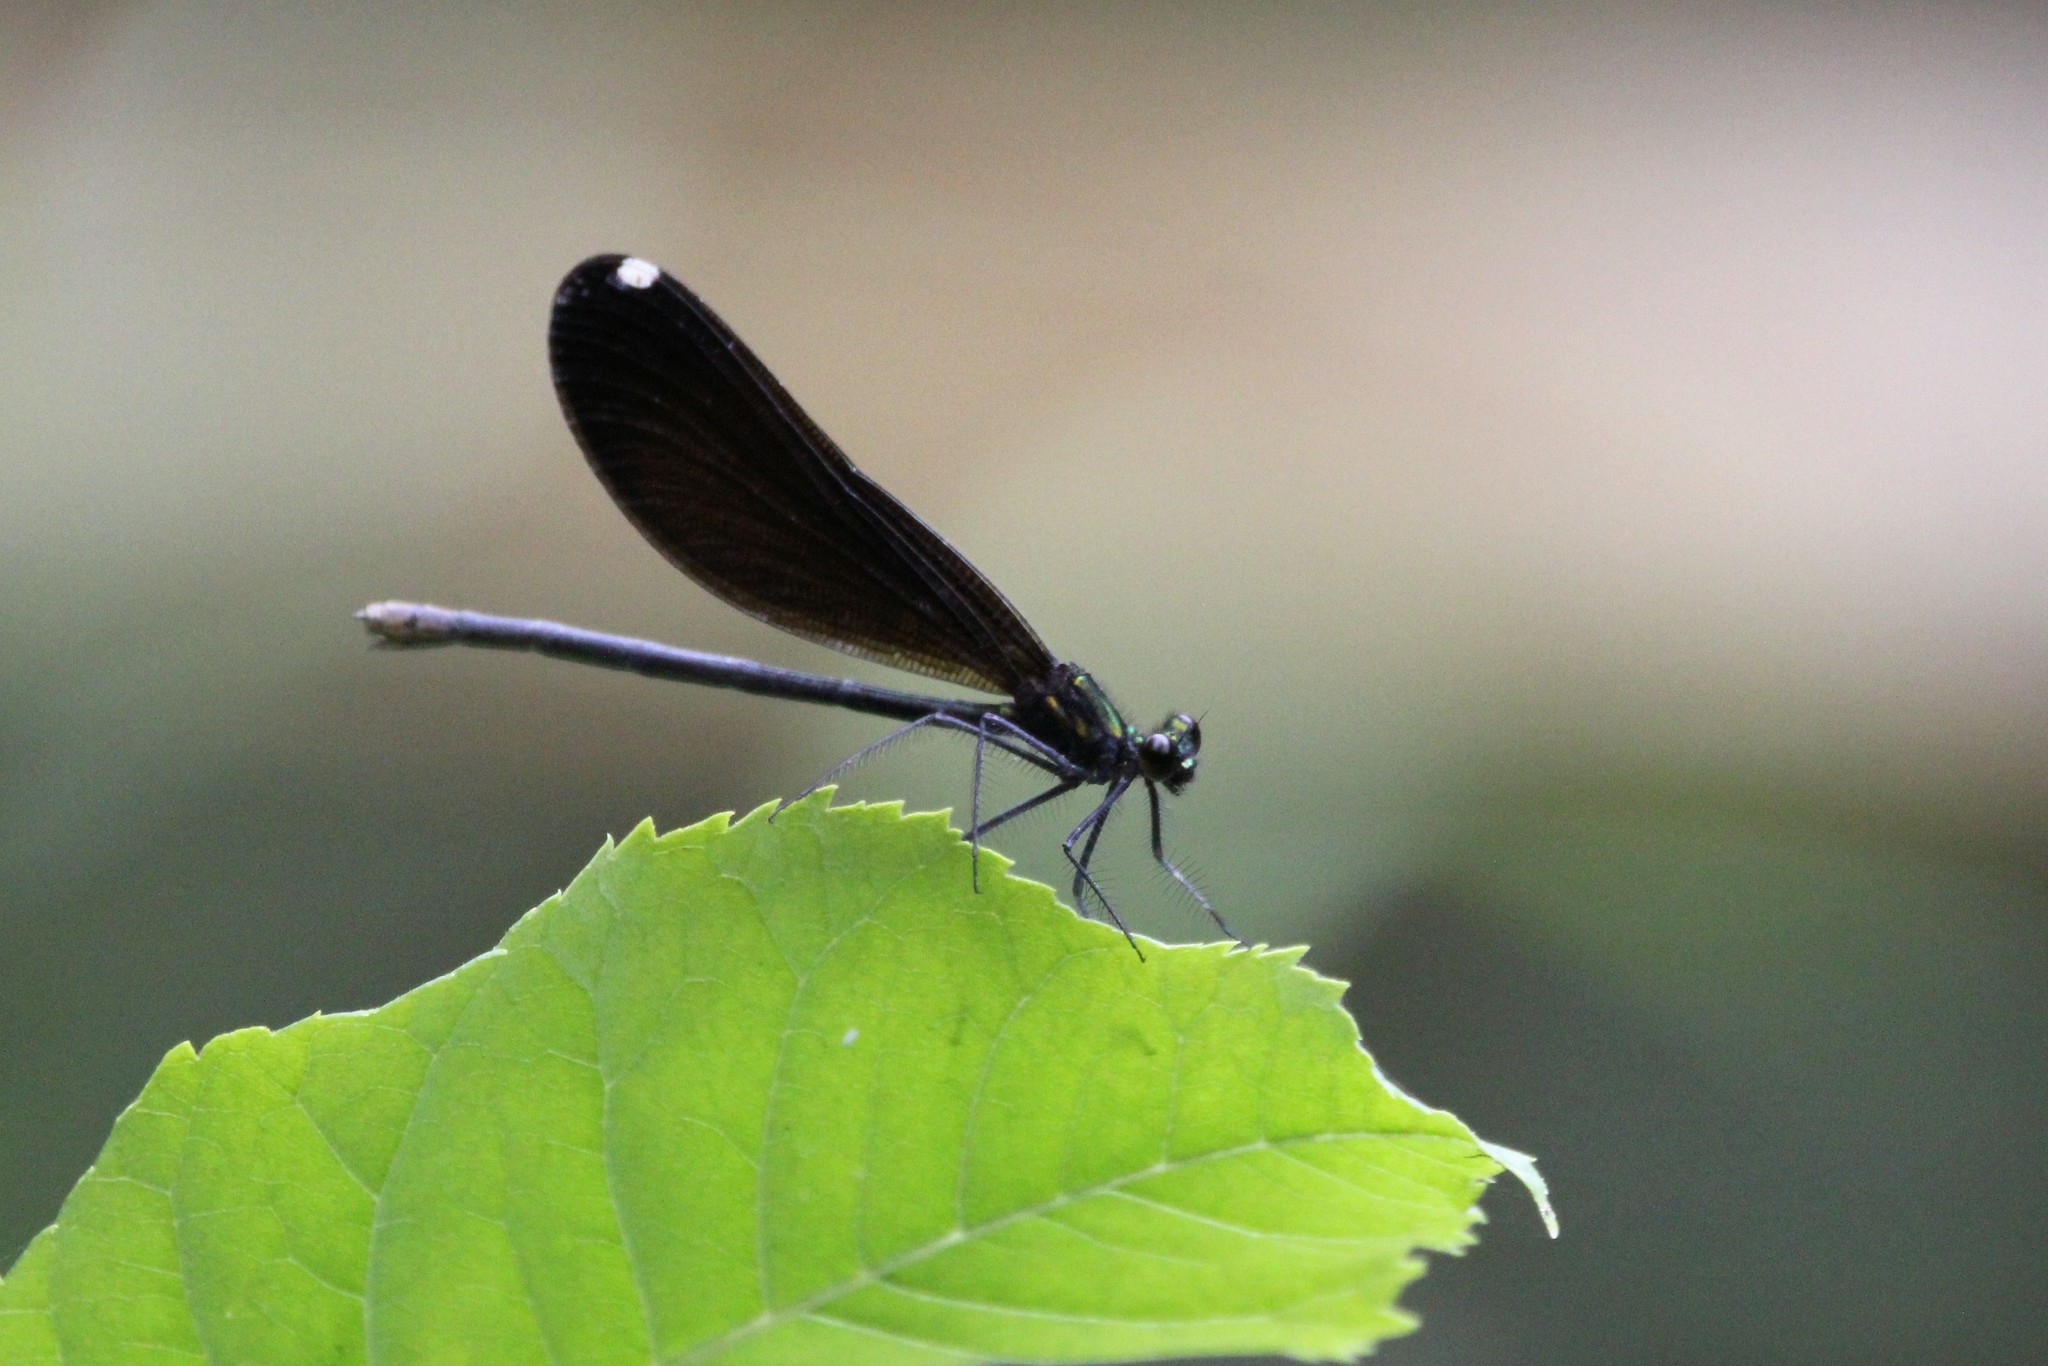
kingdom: Animalia
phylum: Arthropoda
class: Insecta
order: Odonata
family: Calopterygidae
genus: Calopteryx
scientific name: Calopteryx maculata
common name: Ebony jewelwing
